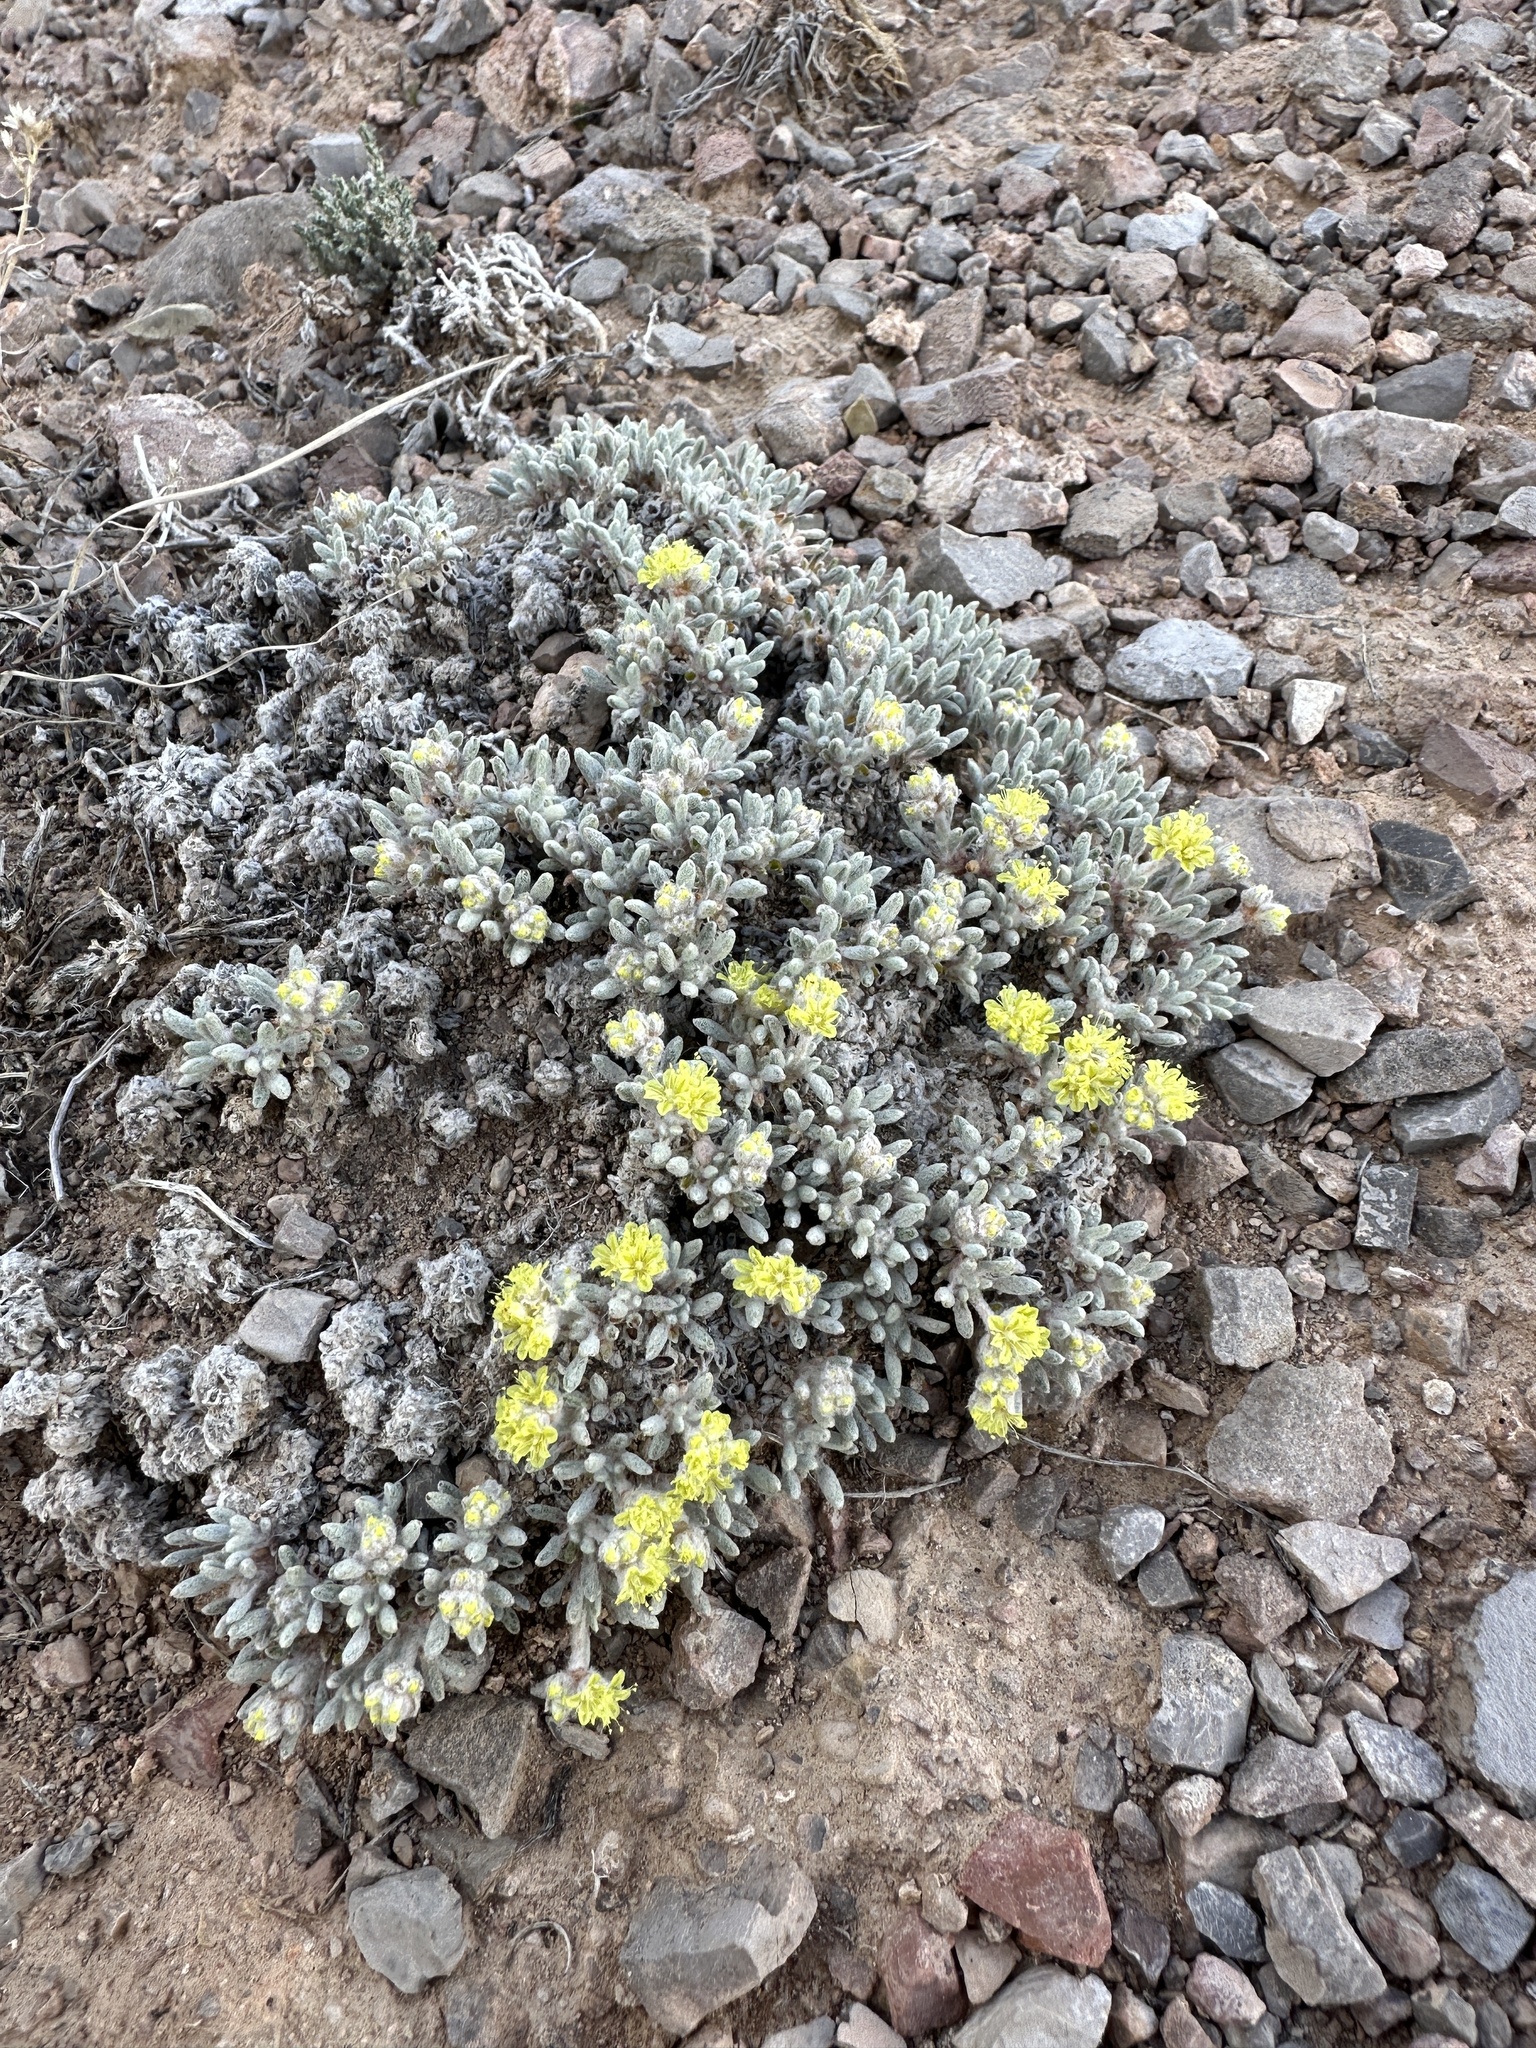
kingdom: Plantae
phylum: Tracheophyta
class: Magnoliopsida
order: Caryophyllales
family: Polygonaceae
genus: Eriogonum
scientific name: Eriogonum shockleyi
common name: Shockley's wild buckwheat
